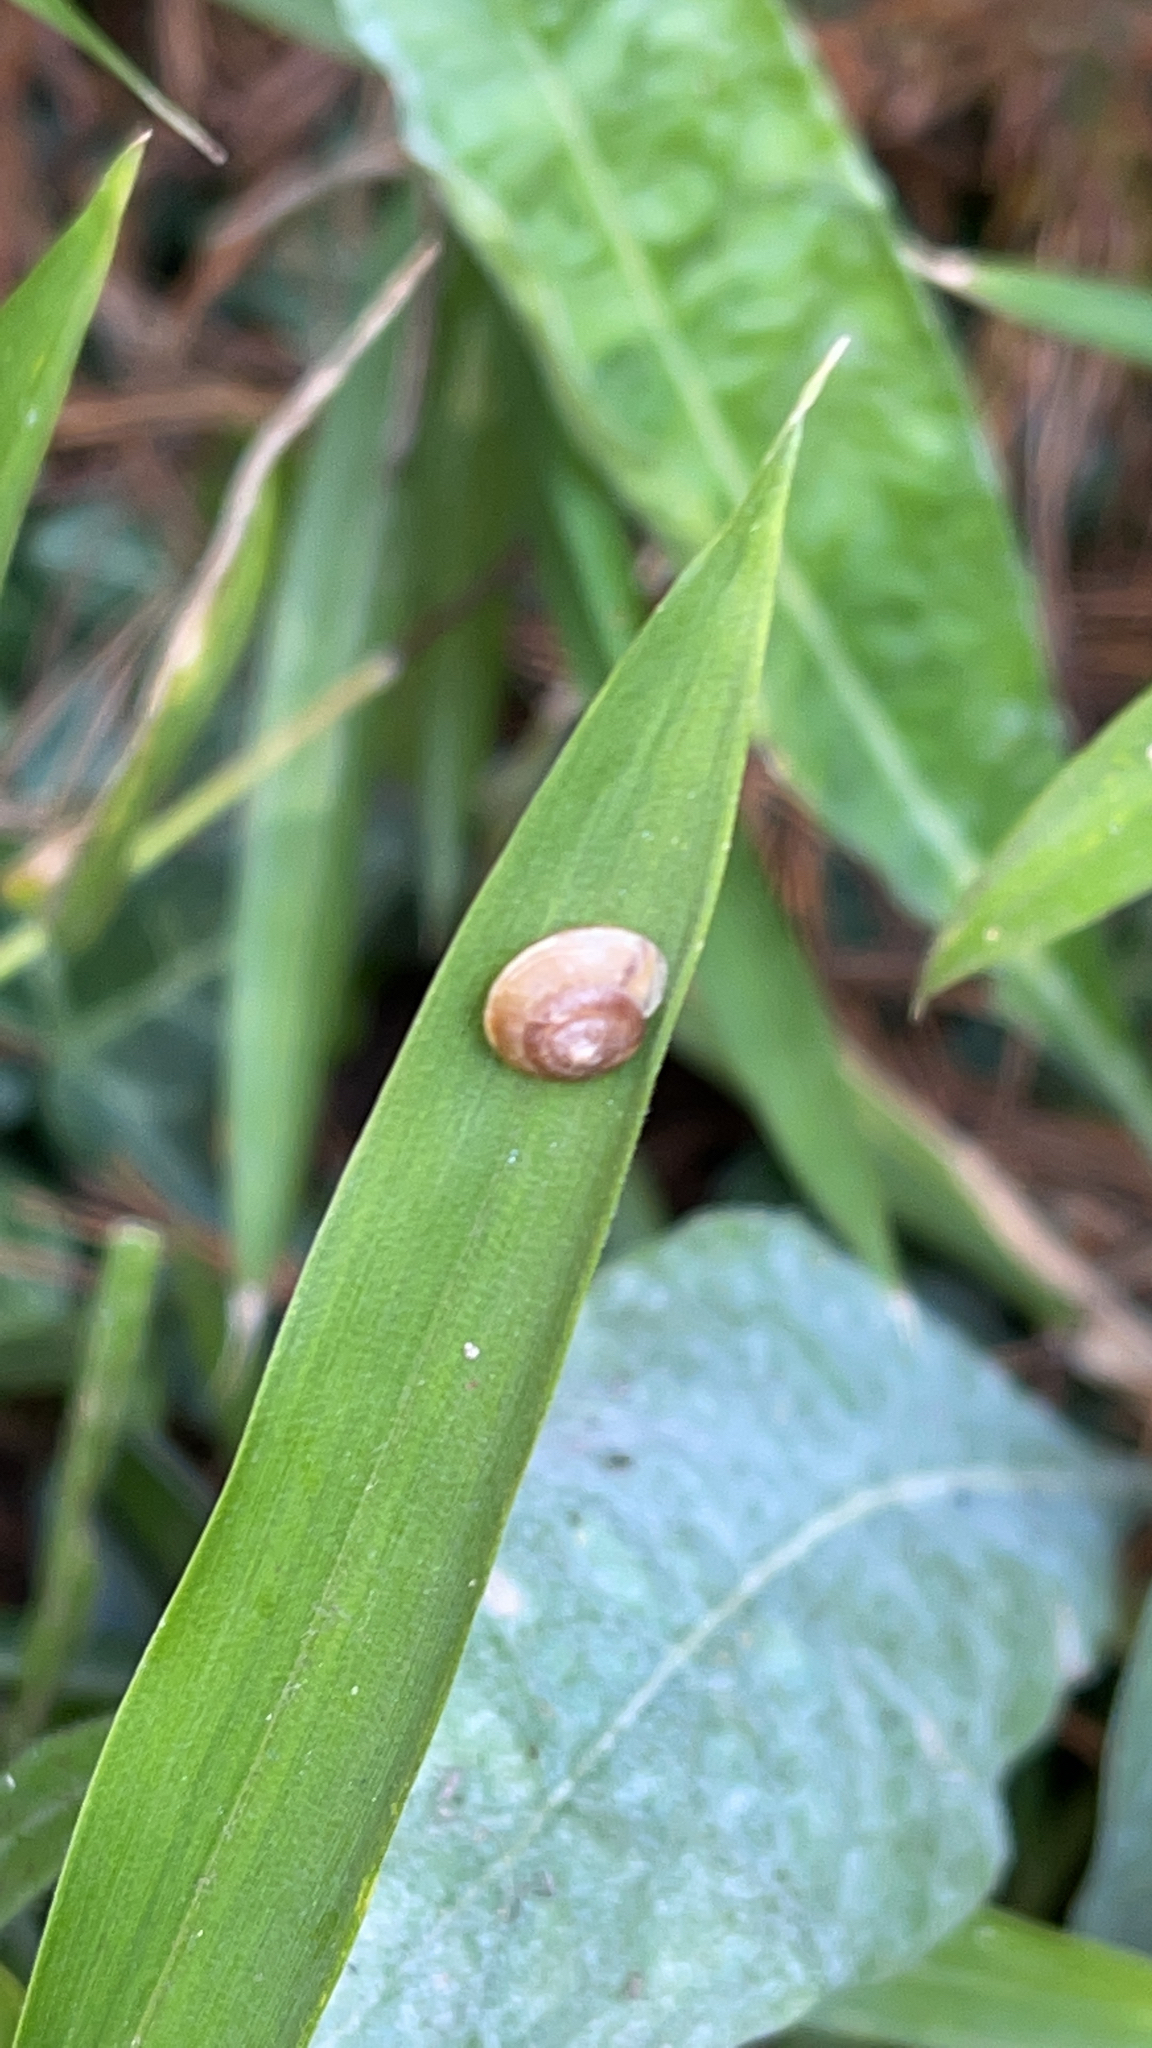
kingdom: Animalia
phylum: Mollusca
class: Gastropoda
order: Stylommatophora
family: Hygromiidae
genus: Hygromia
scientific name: Hygromia cinctella
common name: Girdled snail
